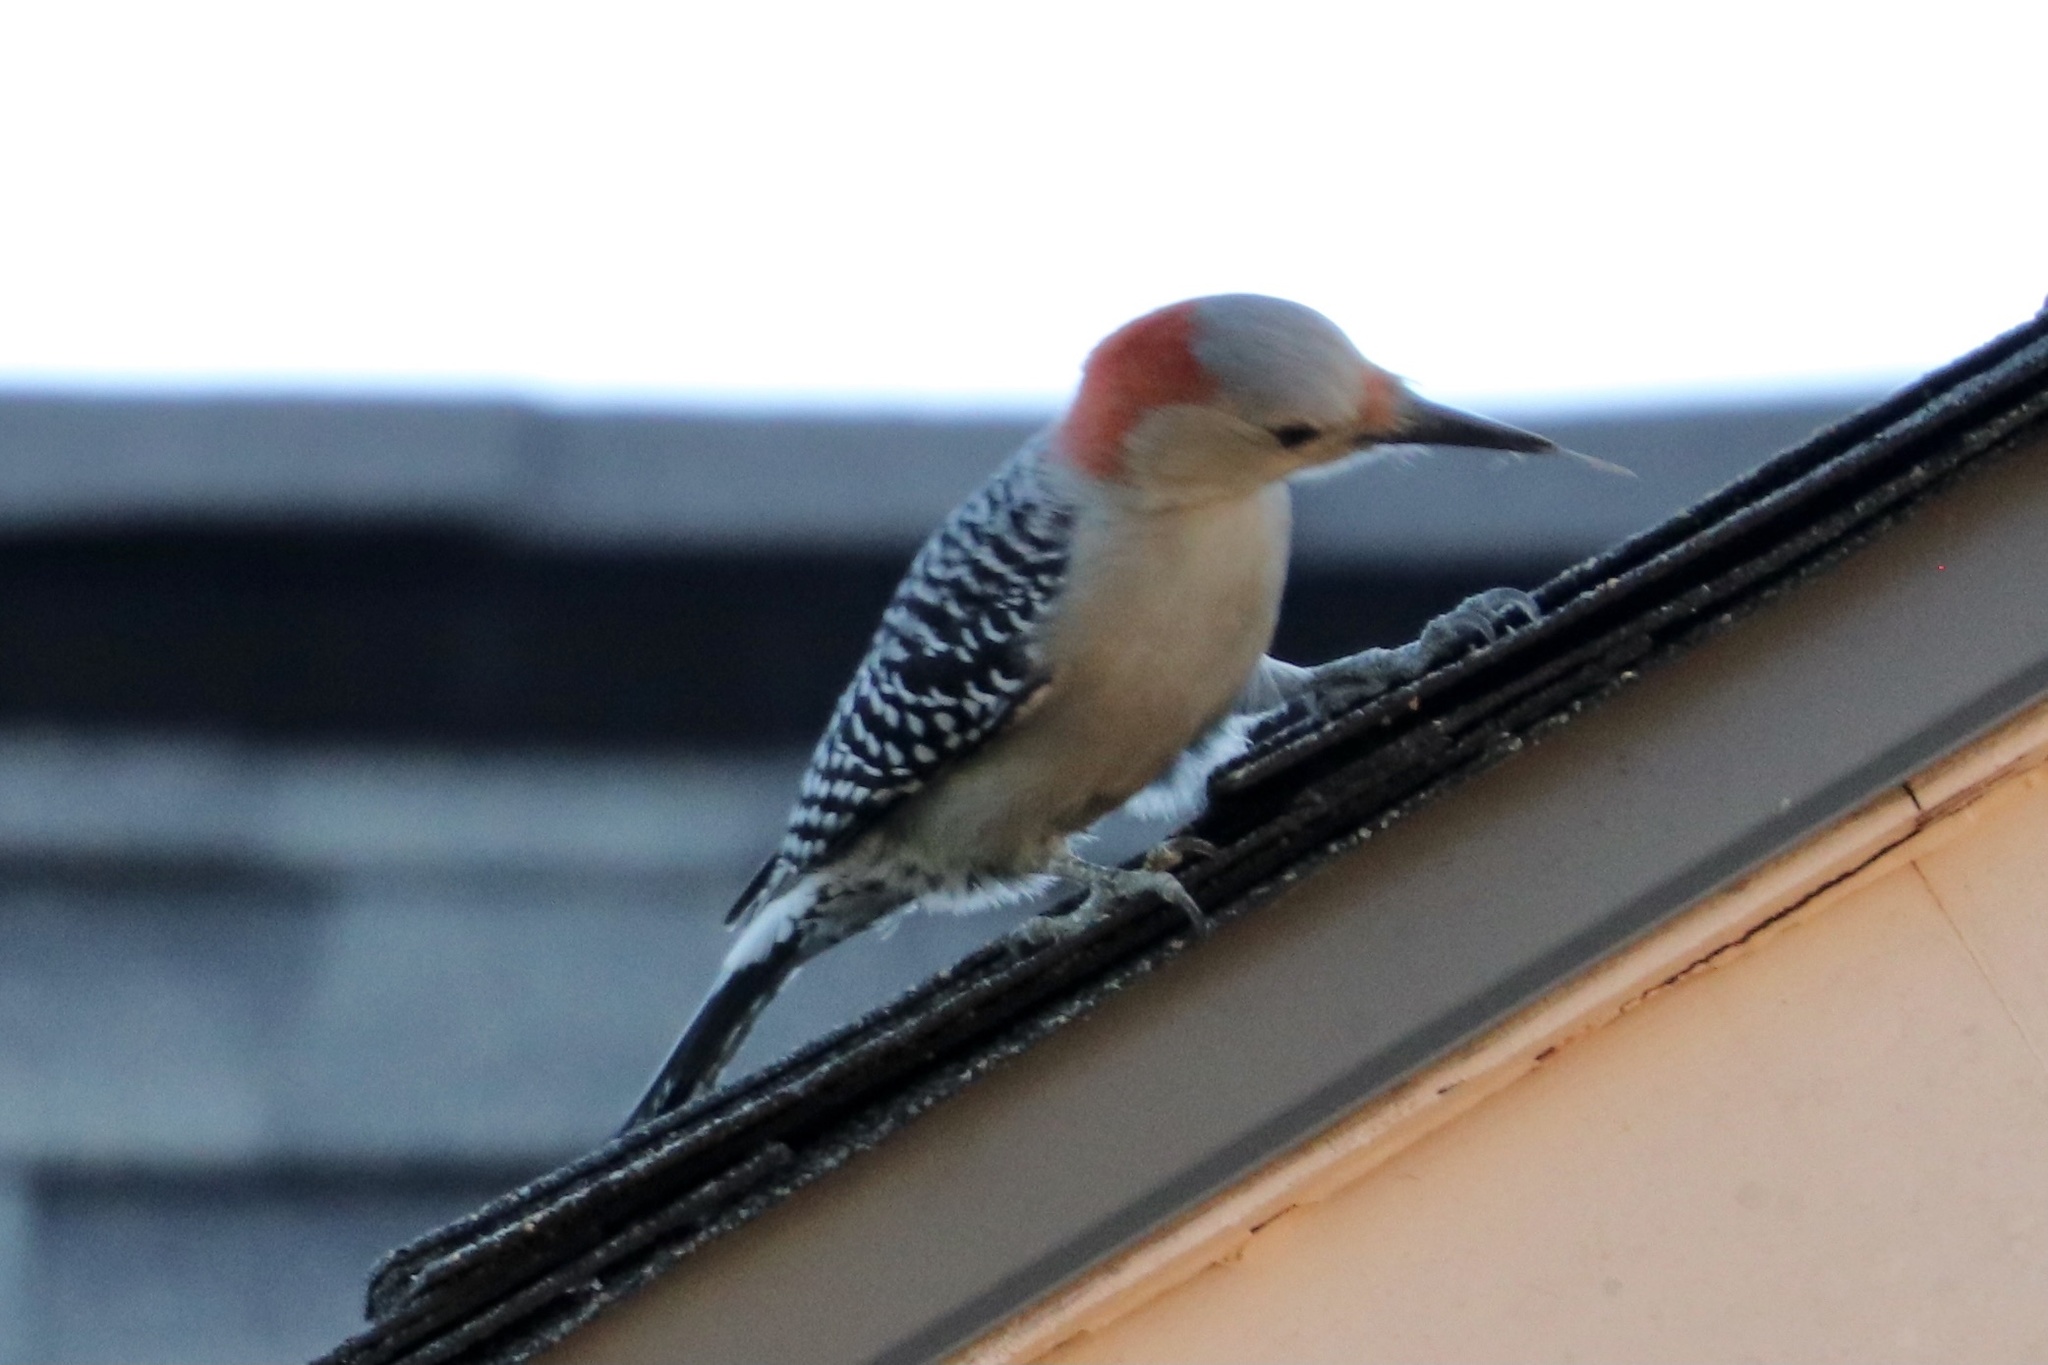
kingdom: Animalia
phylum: Chordata
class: Aves
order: Piciformes
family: Picidae
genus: Melanerpes
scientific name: Melanerpes carolinus
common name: Red-bellied woodpecker
